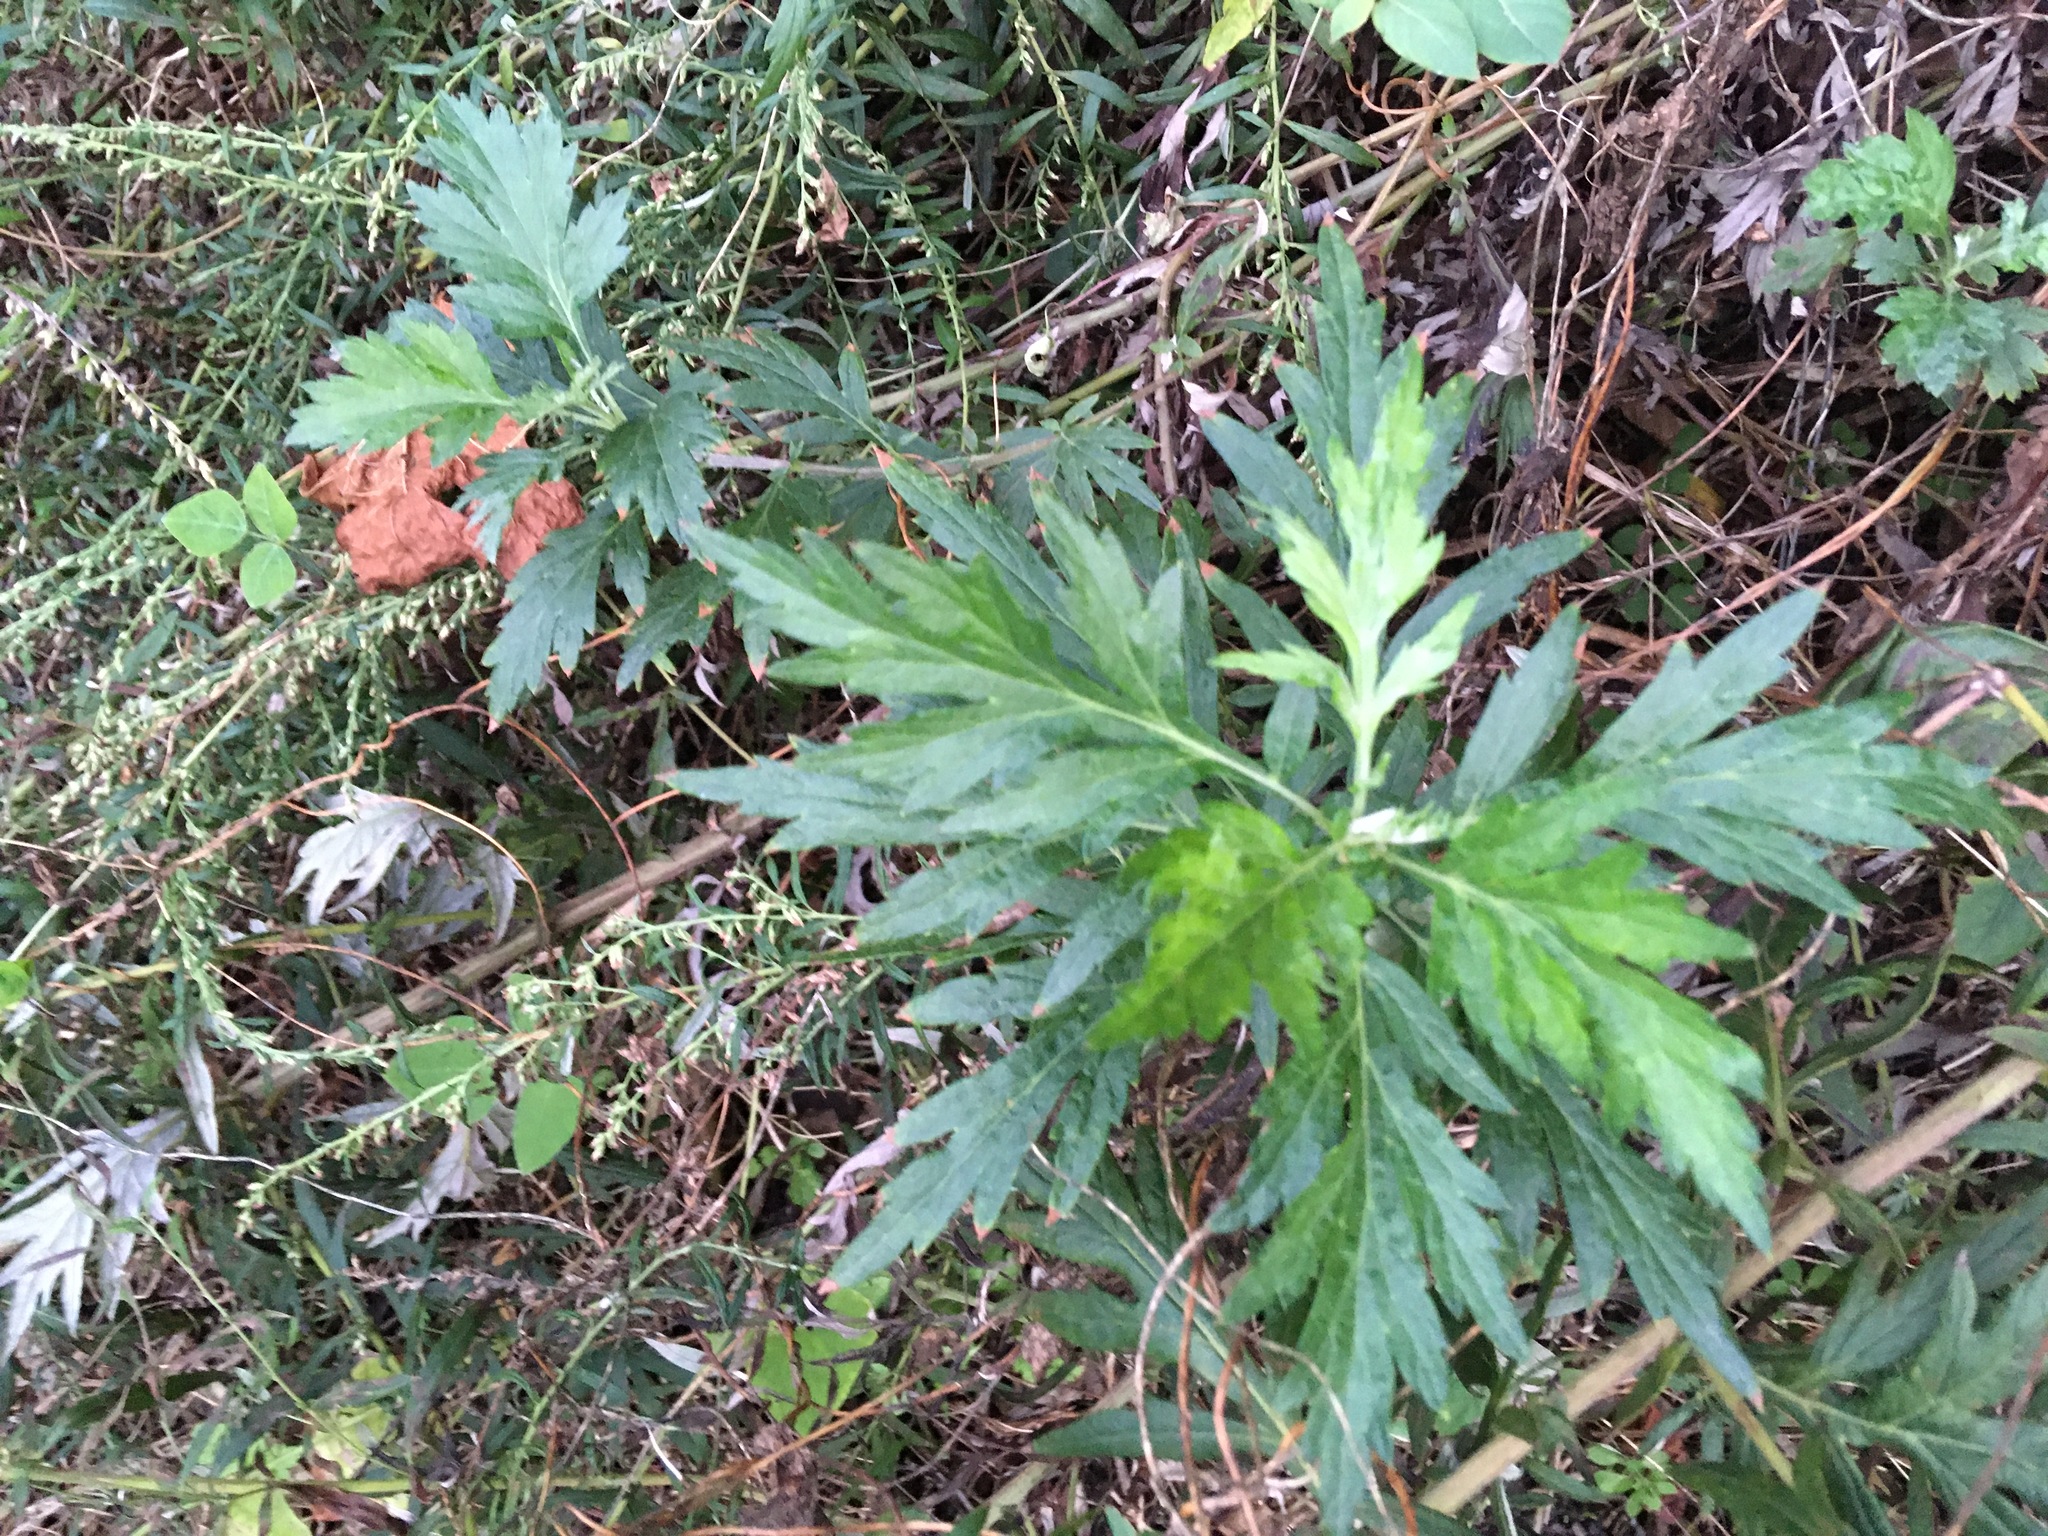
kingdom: Plantae
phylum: Tracheophyta
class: Magnoliopsida
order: Asterales
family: Asteraceae
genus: Artemisia
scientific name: Artemisia vulgaris
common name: Mugwort
